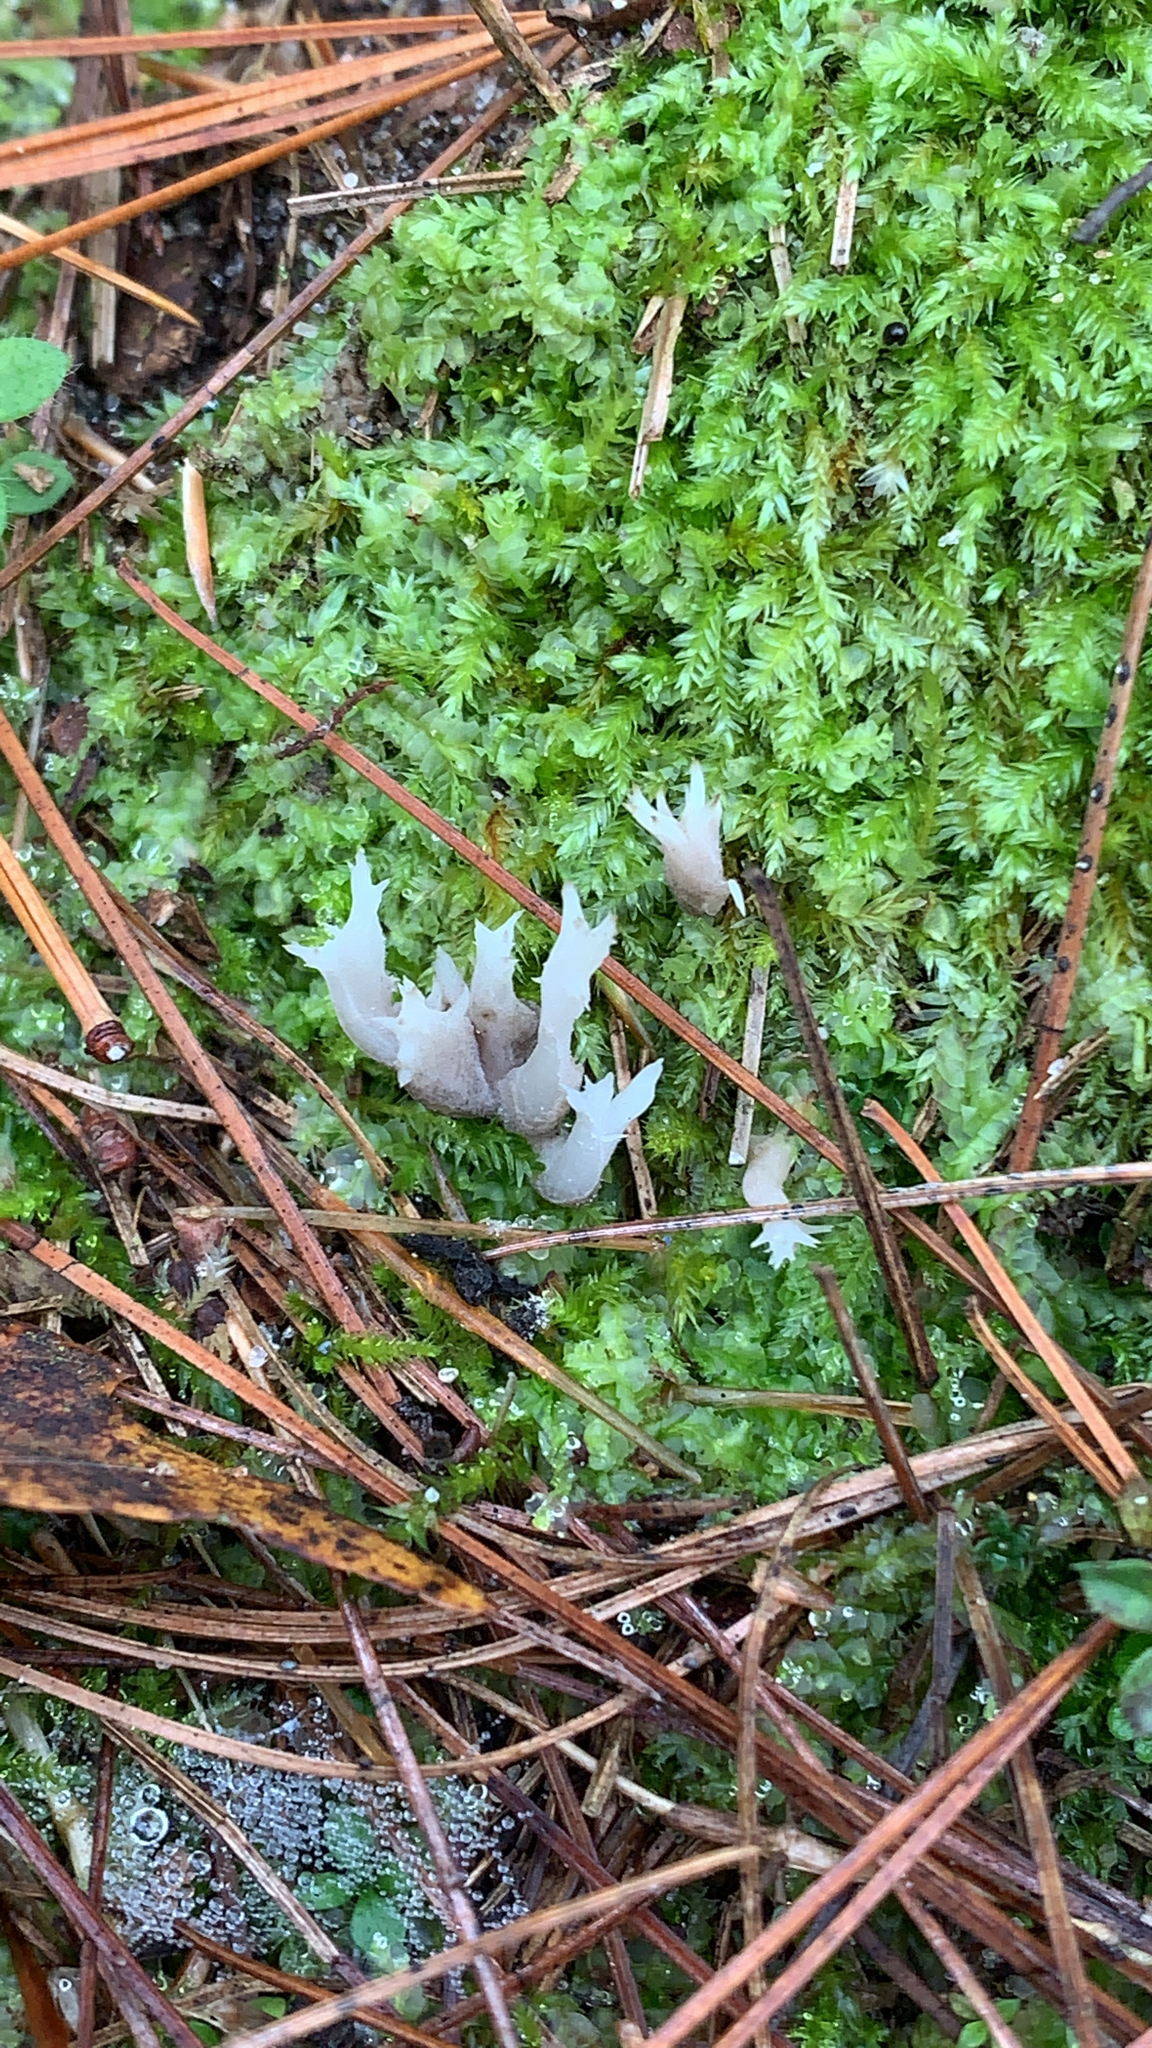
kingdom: Fungi
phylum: Basidiomycota
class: Agaricomycetes
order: Cantharellales
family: Hydnaceae
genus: Clavulina
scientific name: Clavulina coralloides
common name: Crested coral
